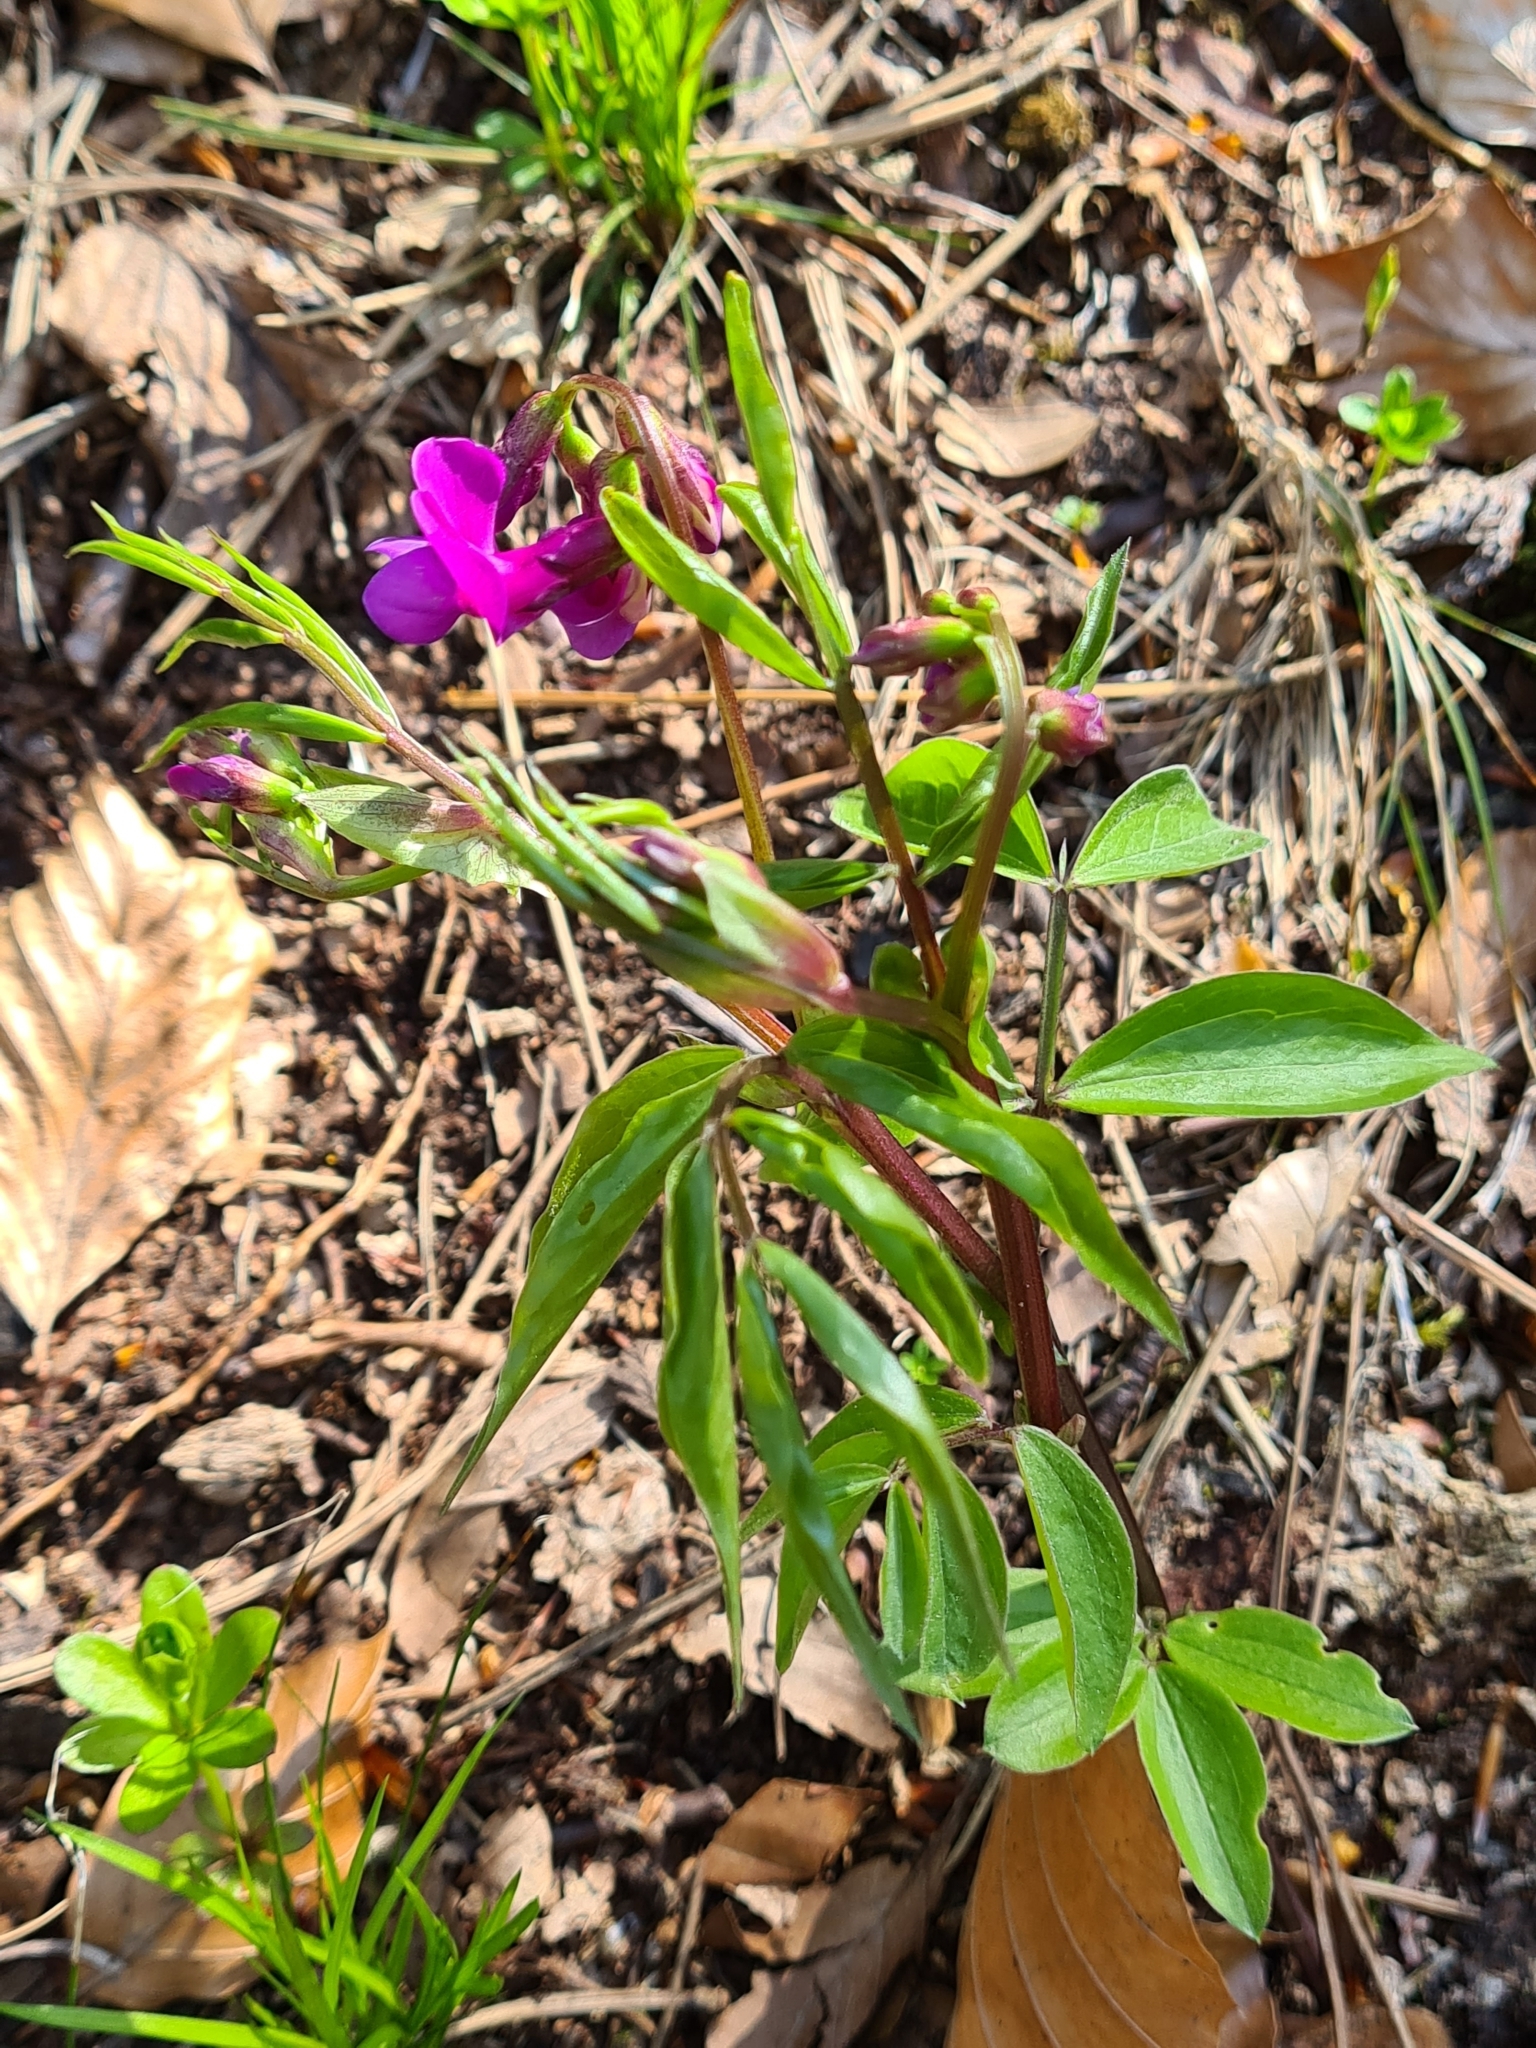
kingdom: Plantae
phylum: Tracheophyta
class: Magnoliopsida
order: Fabales
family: Fabaceae
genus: Lathyrus
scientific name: Lathyrus vernus
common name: Spring pea
